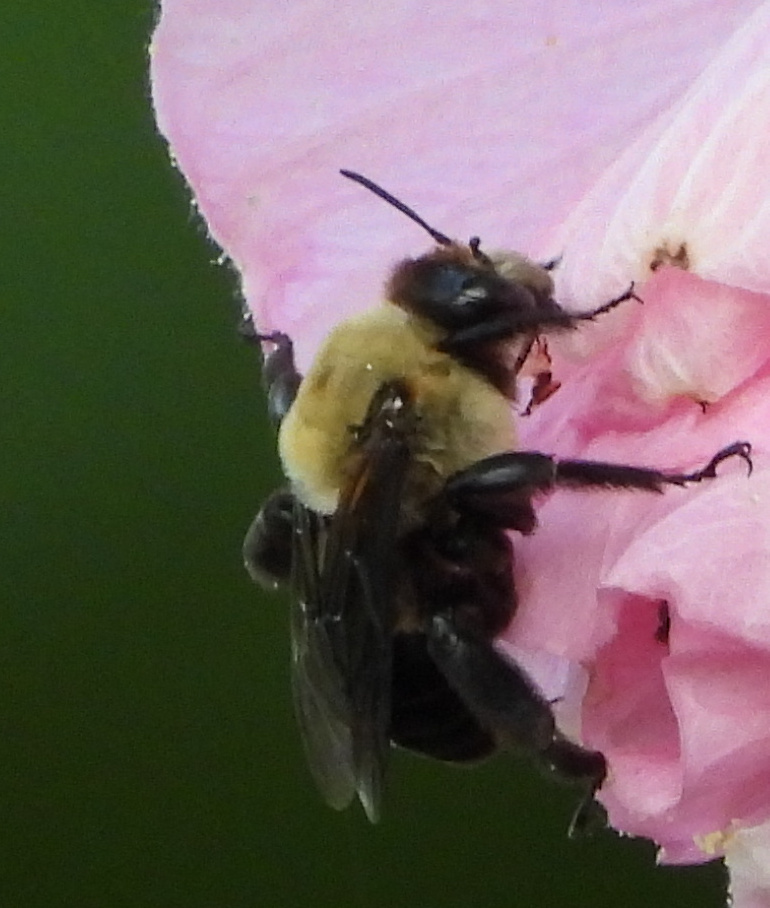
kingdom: Animalia
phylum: Arthropoda
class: Insecta
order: Hymenoptera
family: Apidae
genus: Ptilothrix
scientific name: Ptilothrix bombiformis
